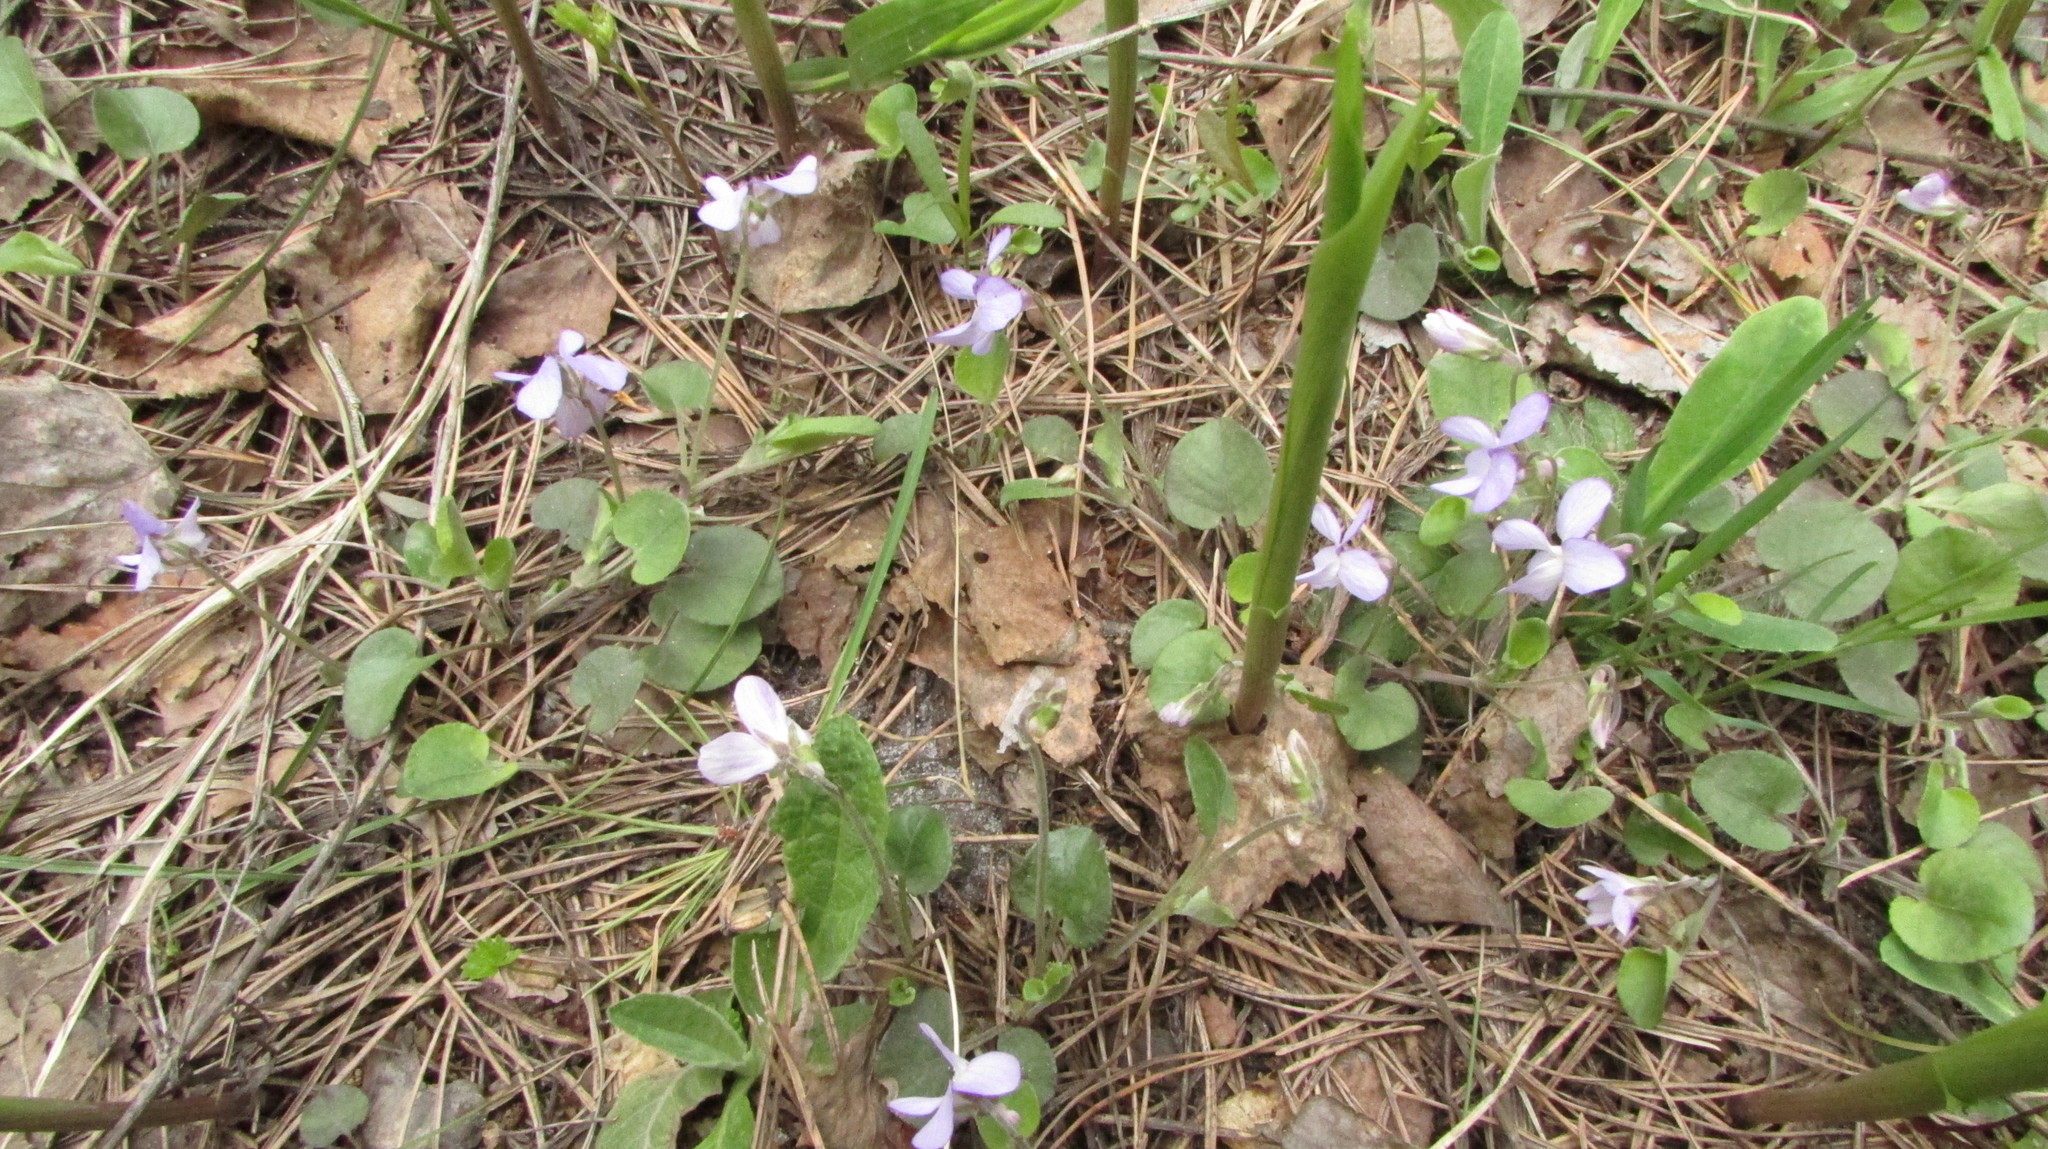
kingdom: Plantae
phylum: Tracheophyta
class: Magnoliopsida
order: Malpighiales
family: Violaceae
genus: Viola
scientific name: Viola rupestris
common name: Teesdale violet
